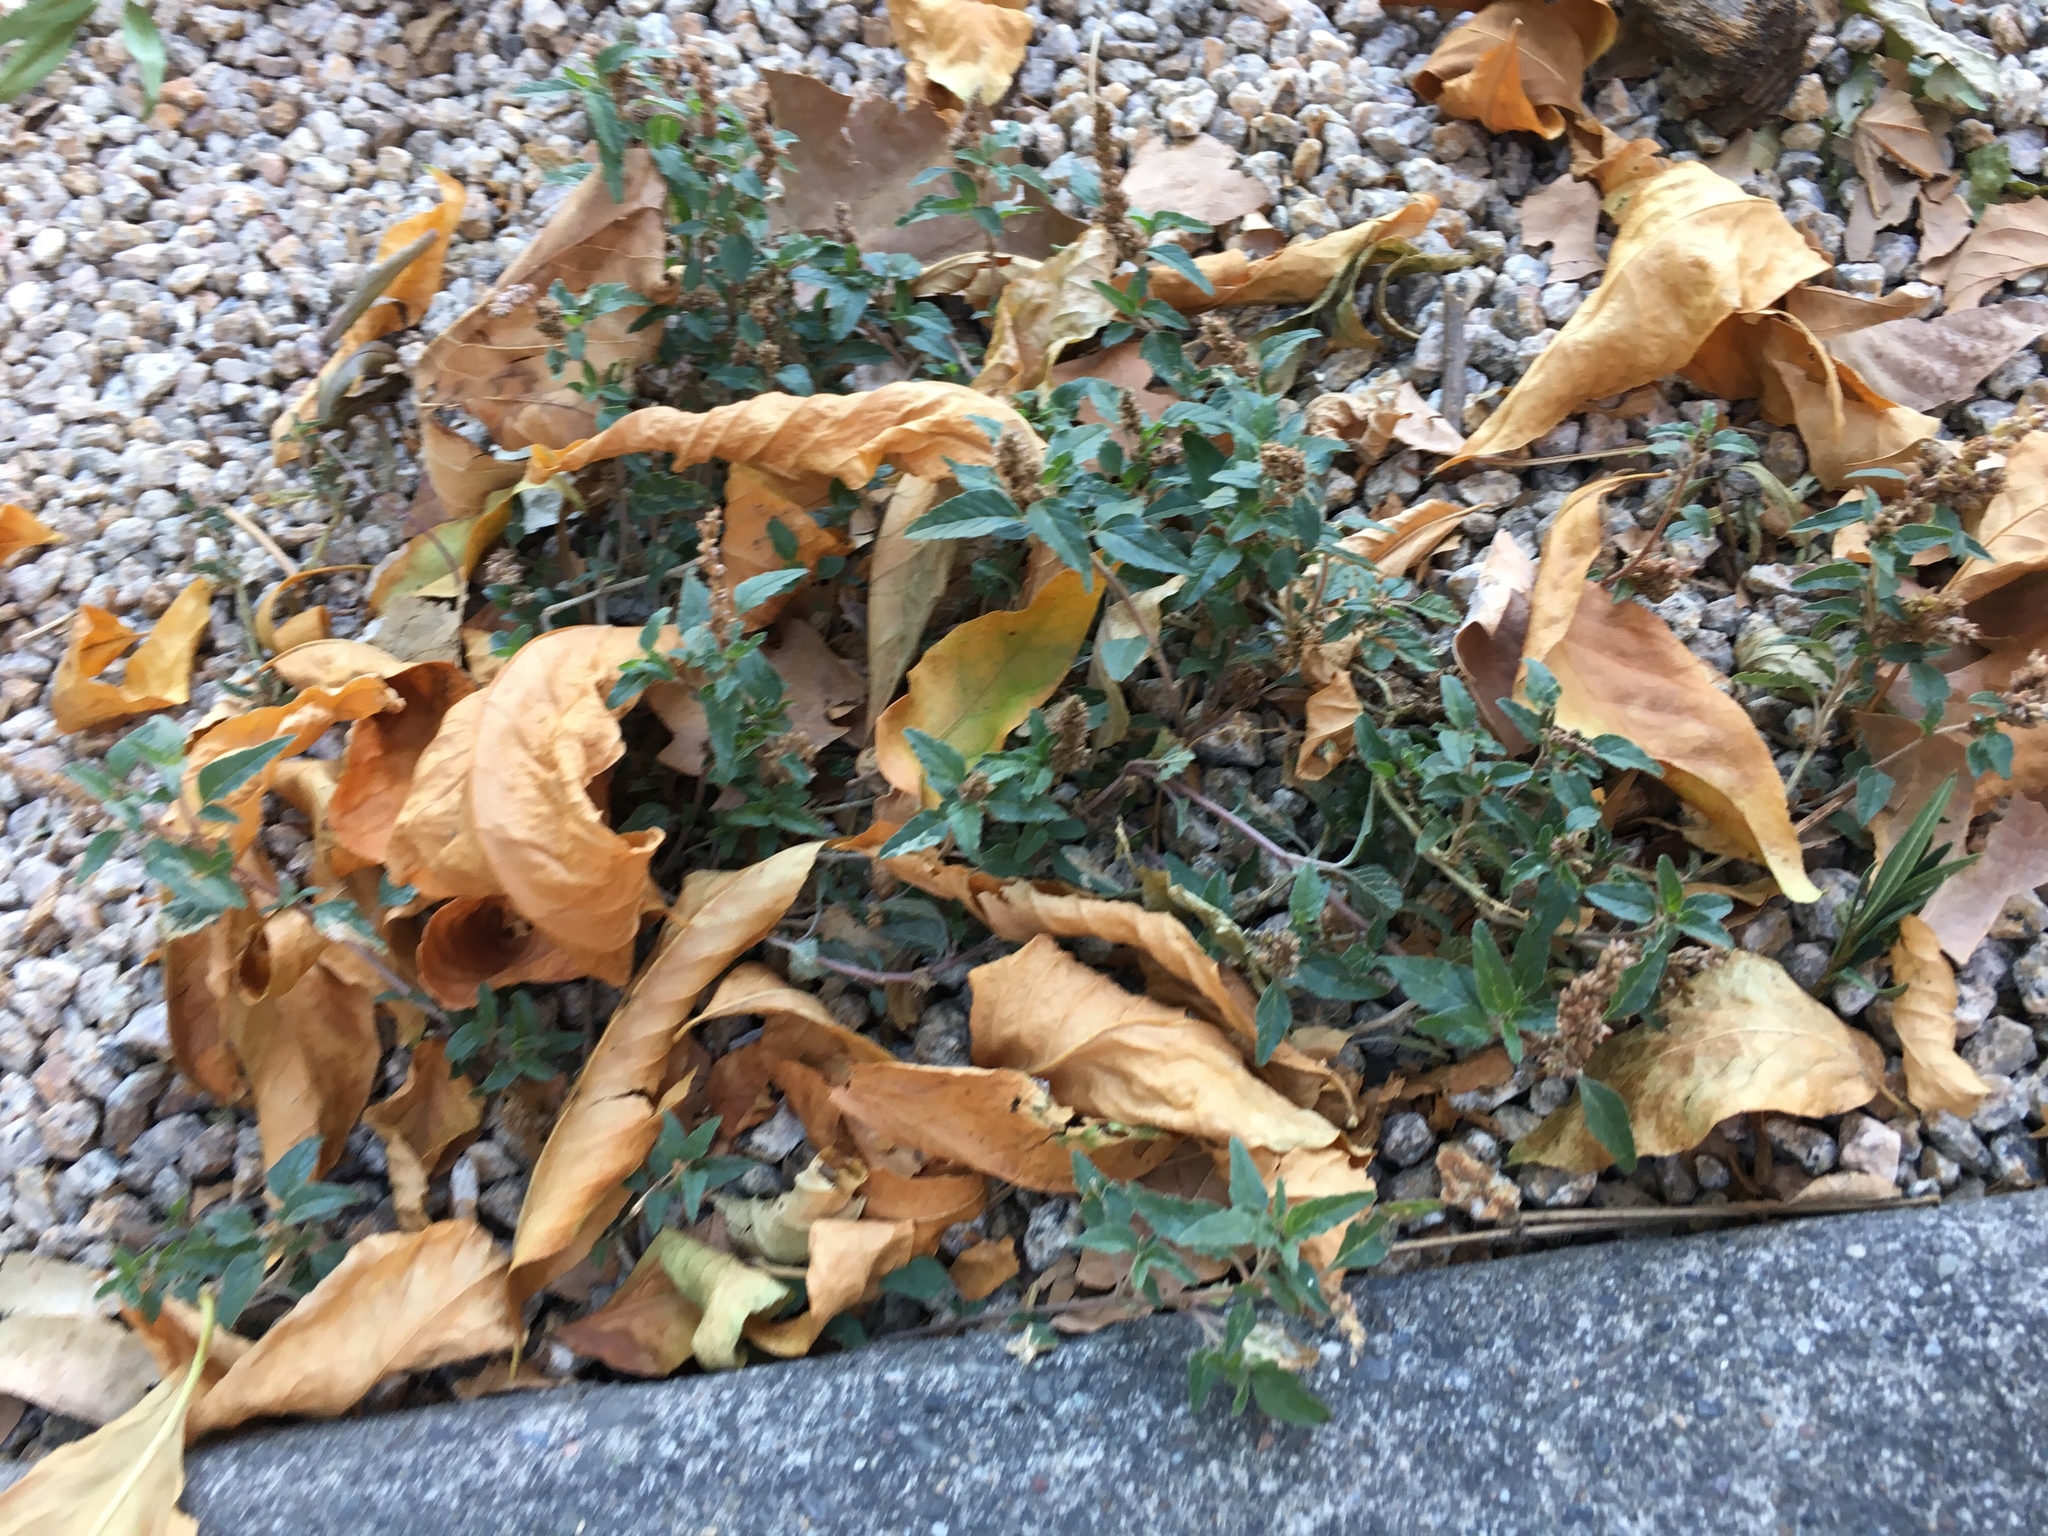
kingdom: Plantae
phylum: Tracheophyta
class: Magnoliopsida
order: Caryophyllales
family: Amaranthaceae
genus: Amaranthus
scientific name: Amaranthus deflexus
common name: Perennial pigweed
